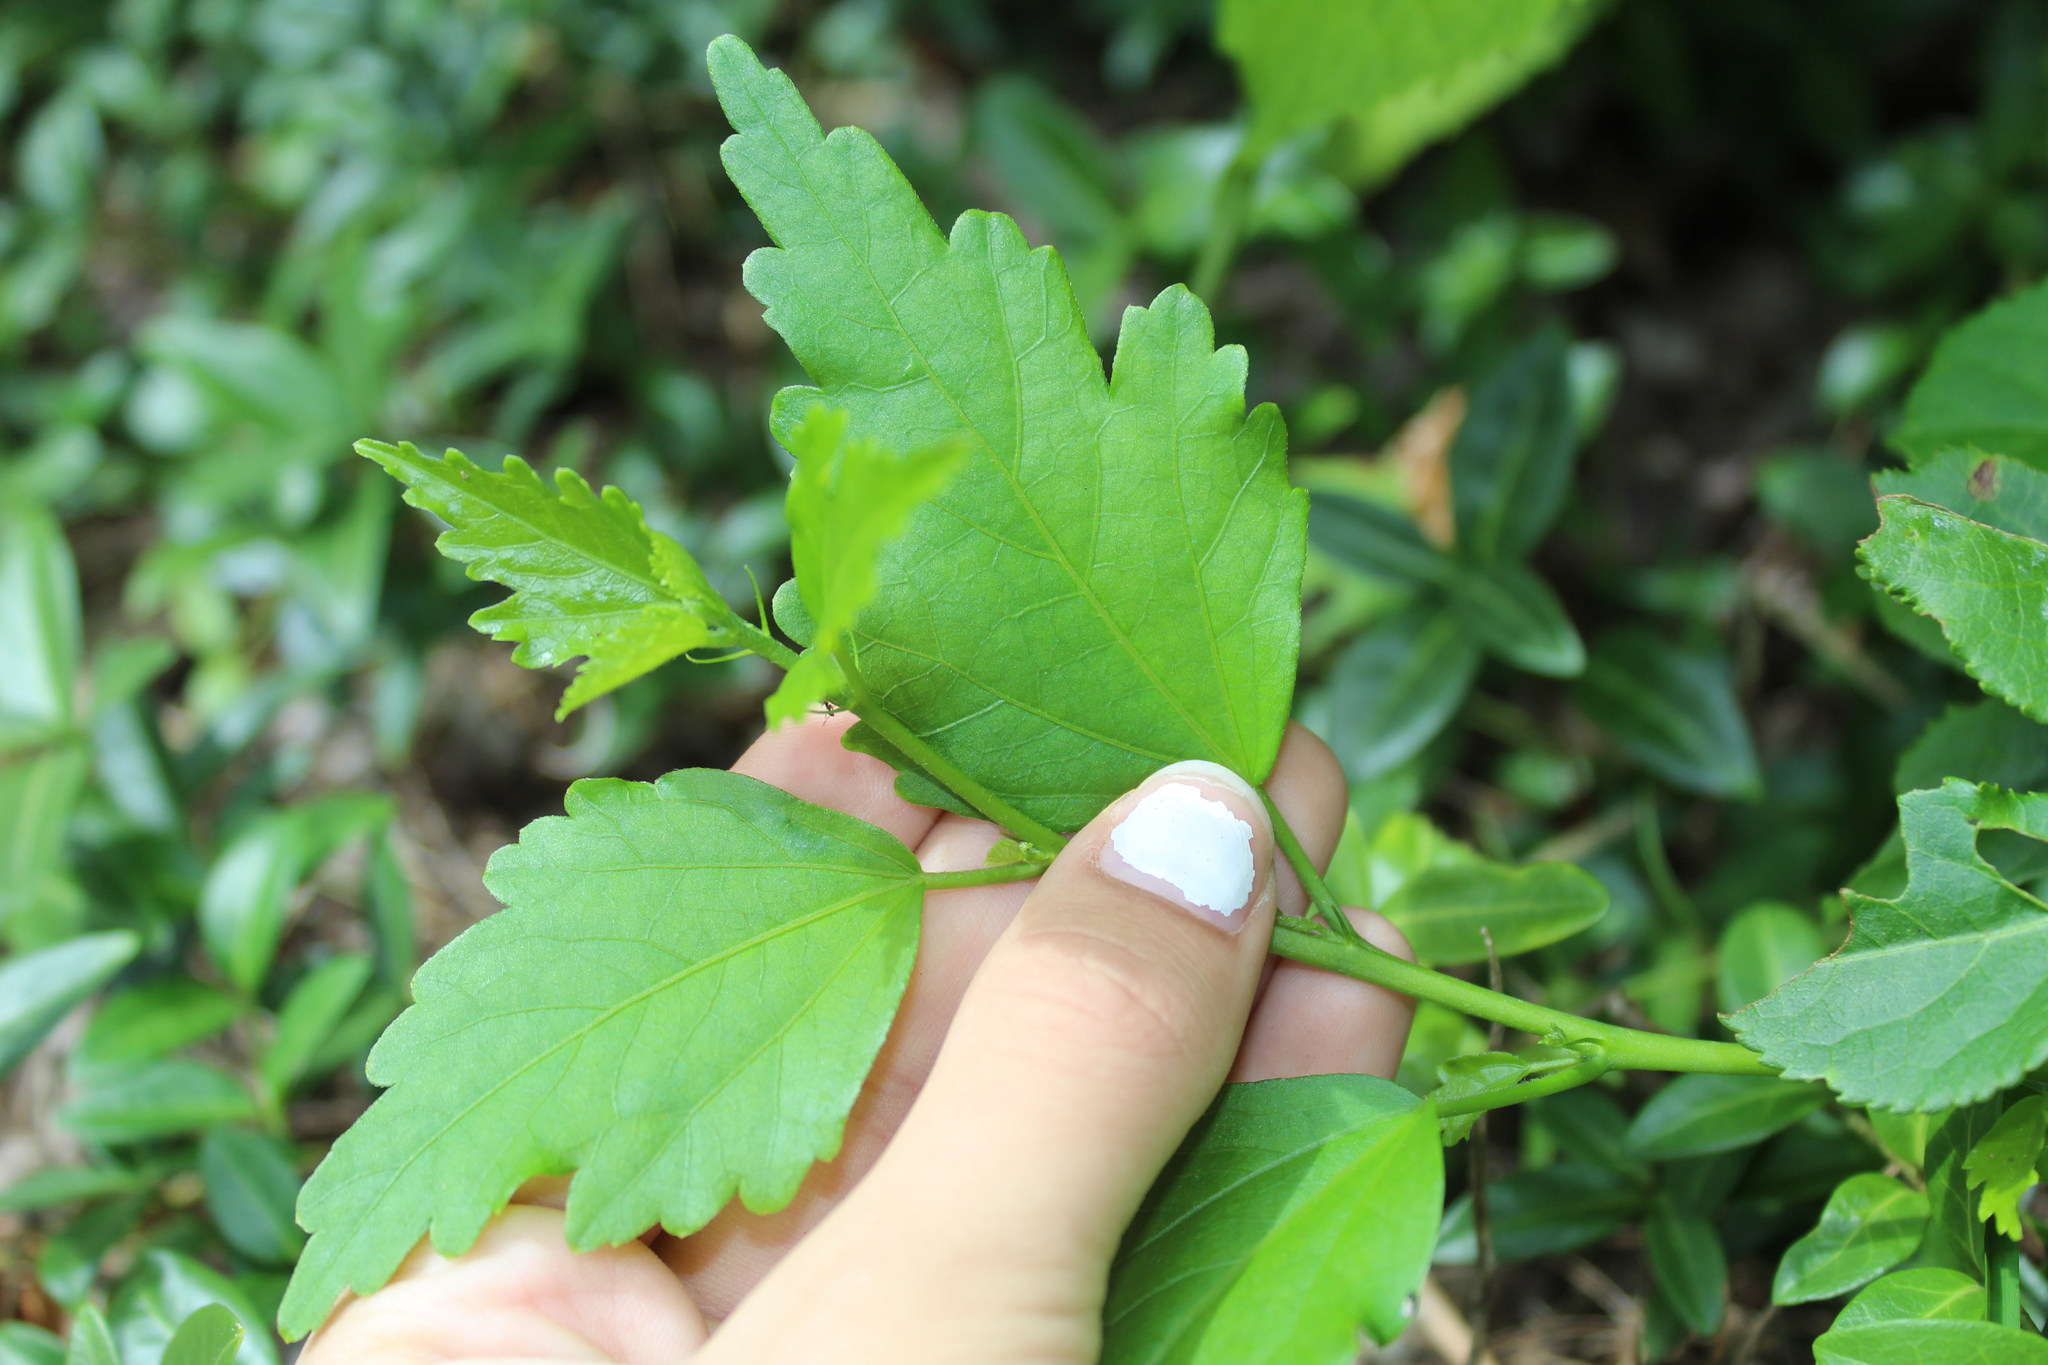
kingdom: Plantae
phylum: Tracheophyta
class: Magnoliopsida
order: Malvales
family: Malvaceae
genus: Hibiscus
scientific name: Hibiscus syriacus
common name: Syrian ketmia
